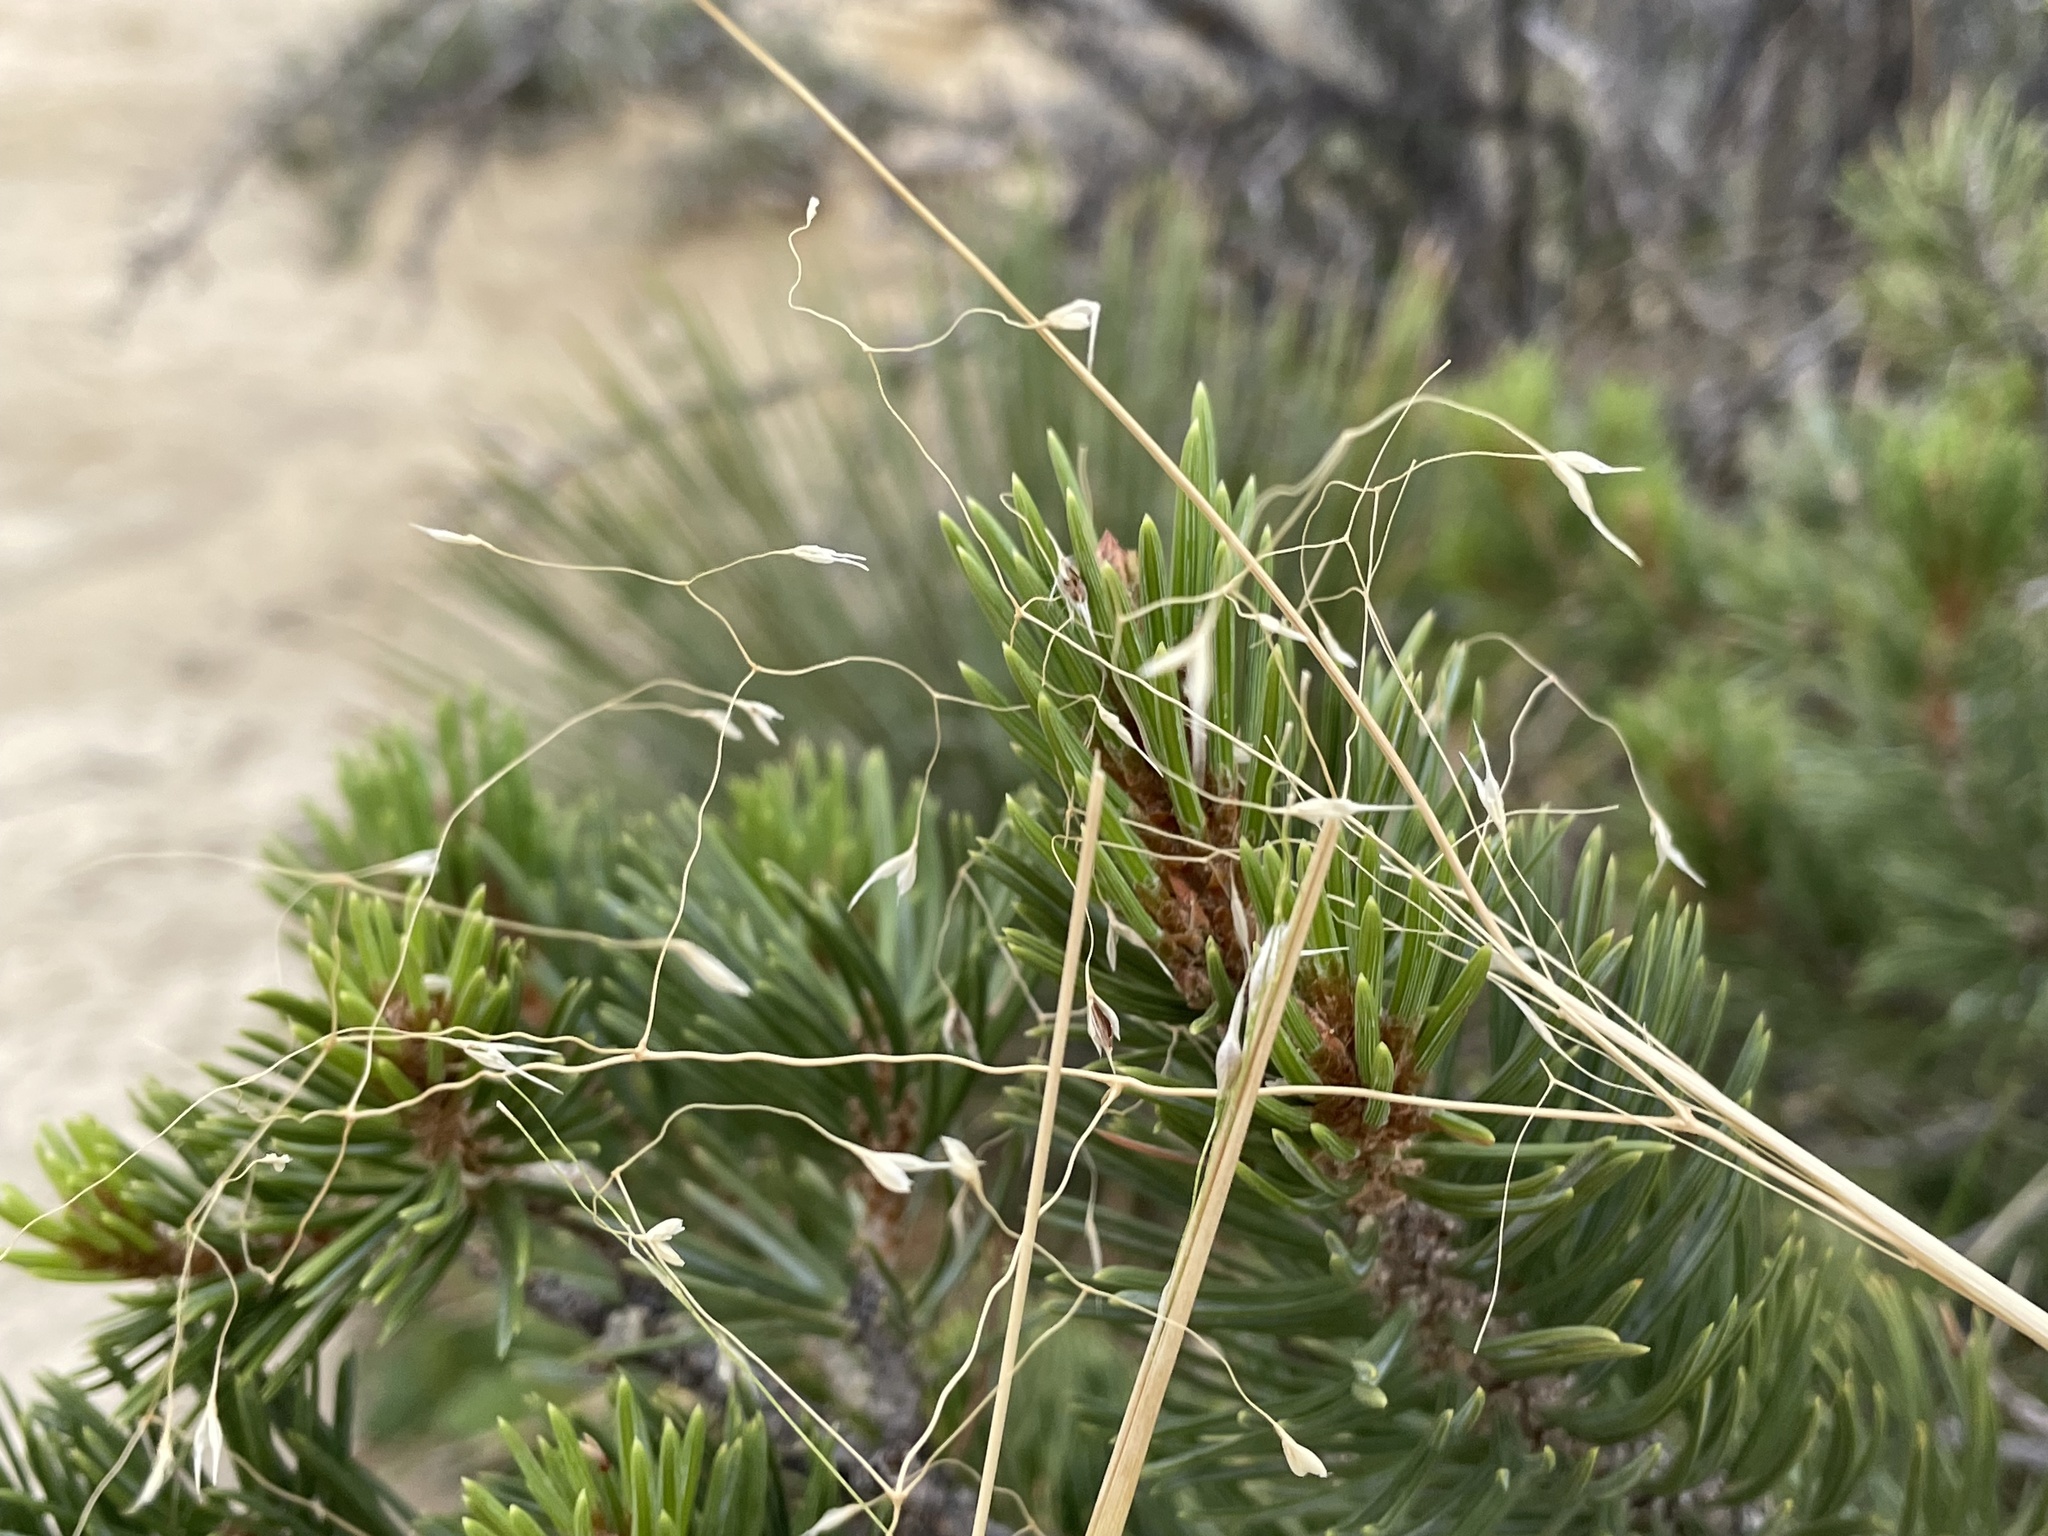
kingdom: Plantae
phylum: Tracheophyta
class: Liliopsida
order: Poales
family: Poaceae
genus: Eriocoma
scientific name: Eriocoma hymenoides
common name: Indian mountain ricegrass
